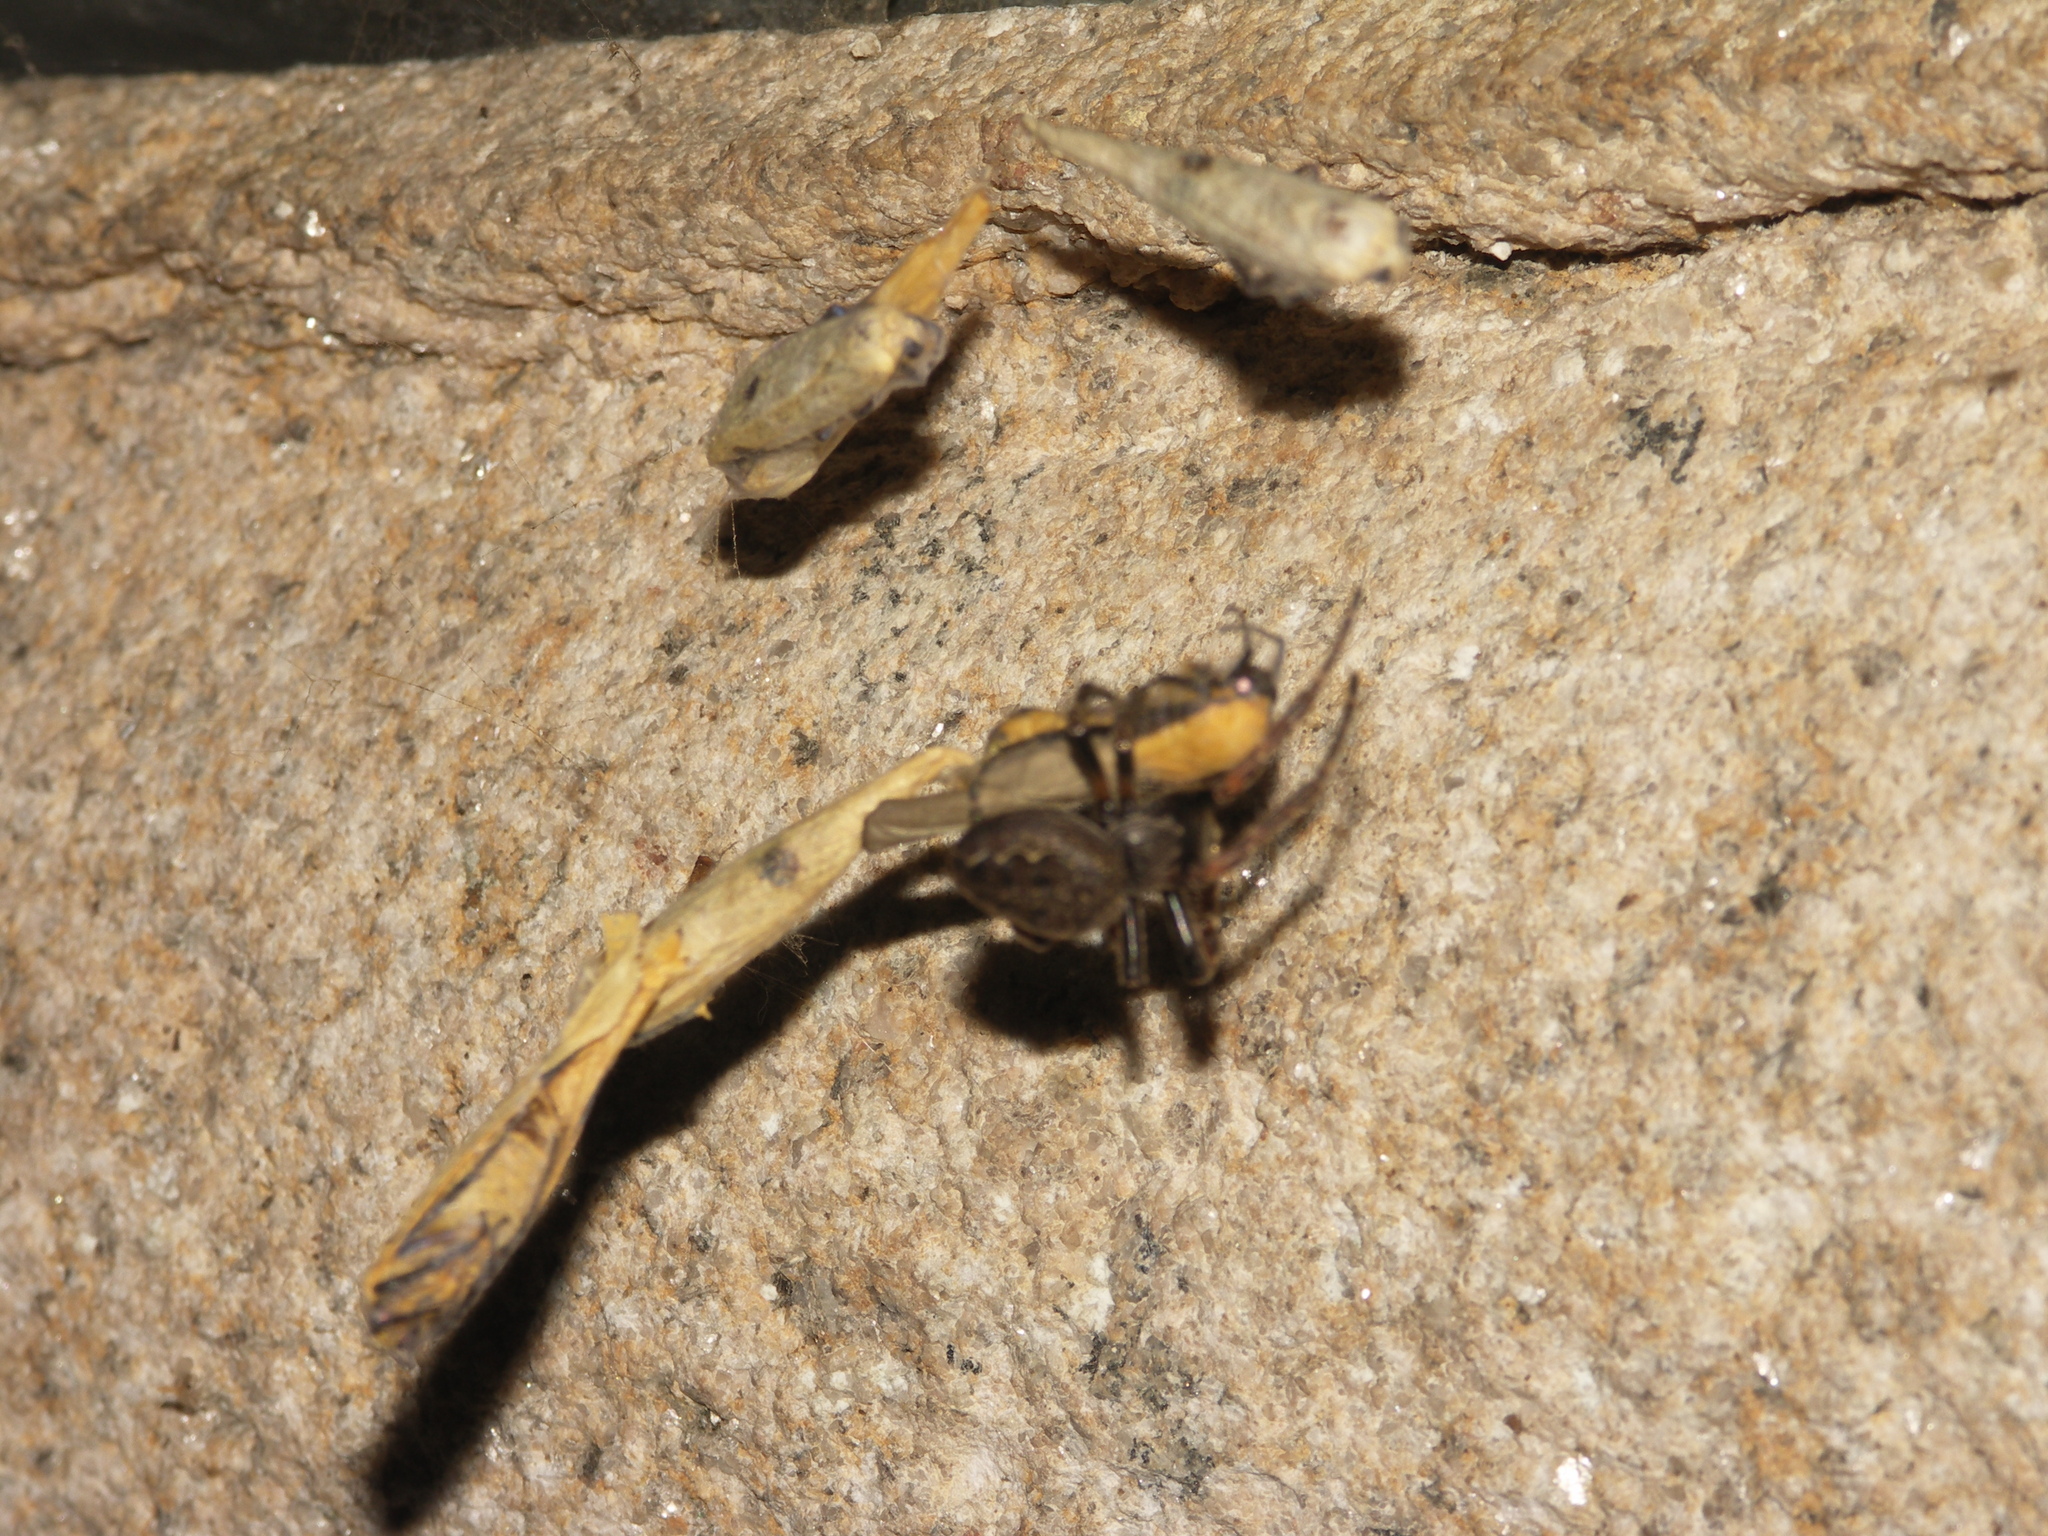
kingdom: Animalia
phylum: Arthropoda
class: Arachnida
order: Araneae
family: Araneidae
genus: Nuctenea
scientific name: Nuctenea umbratica
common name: Toad spider
